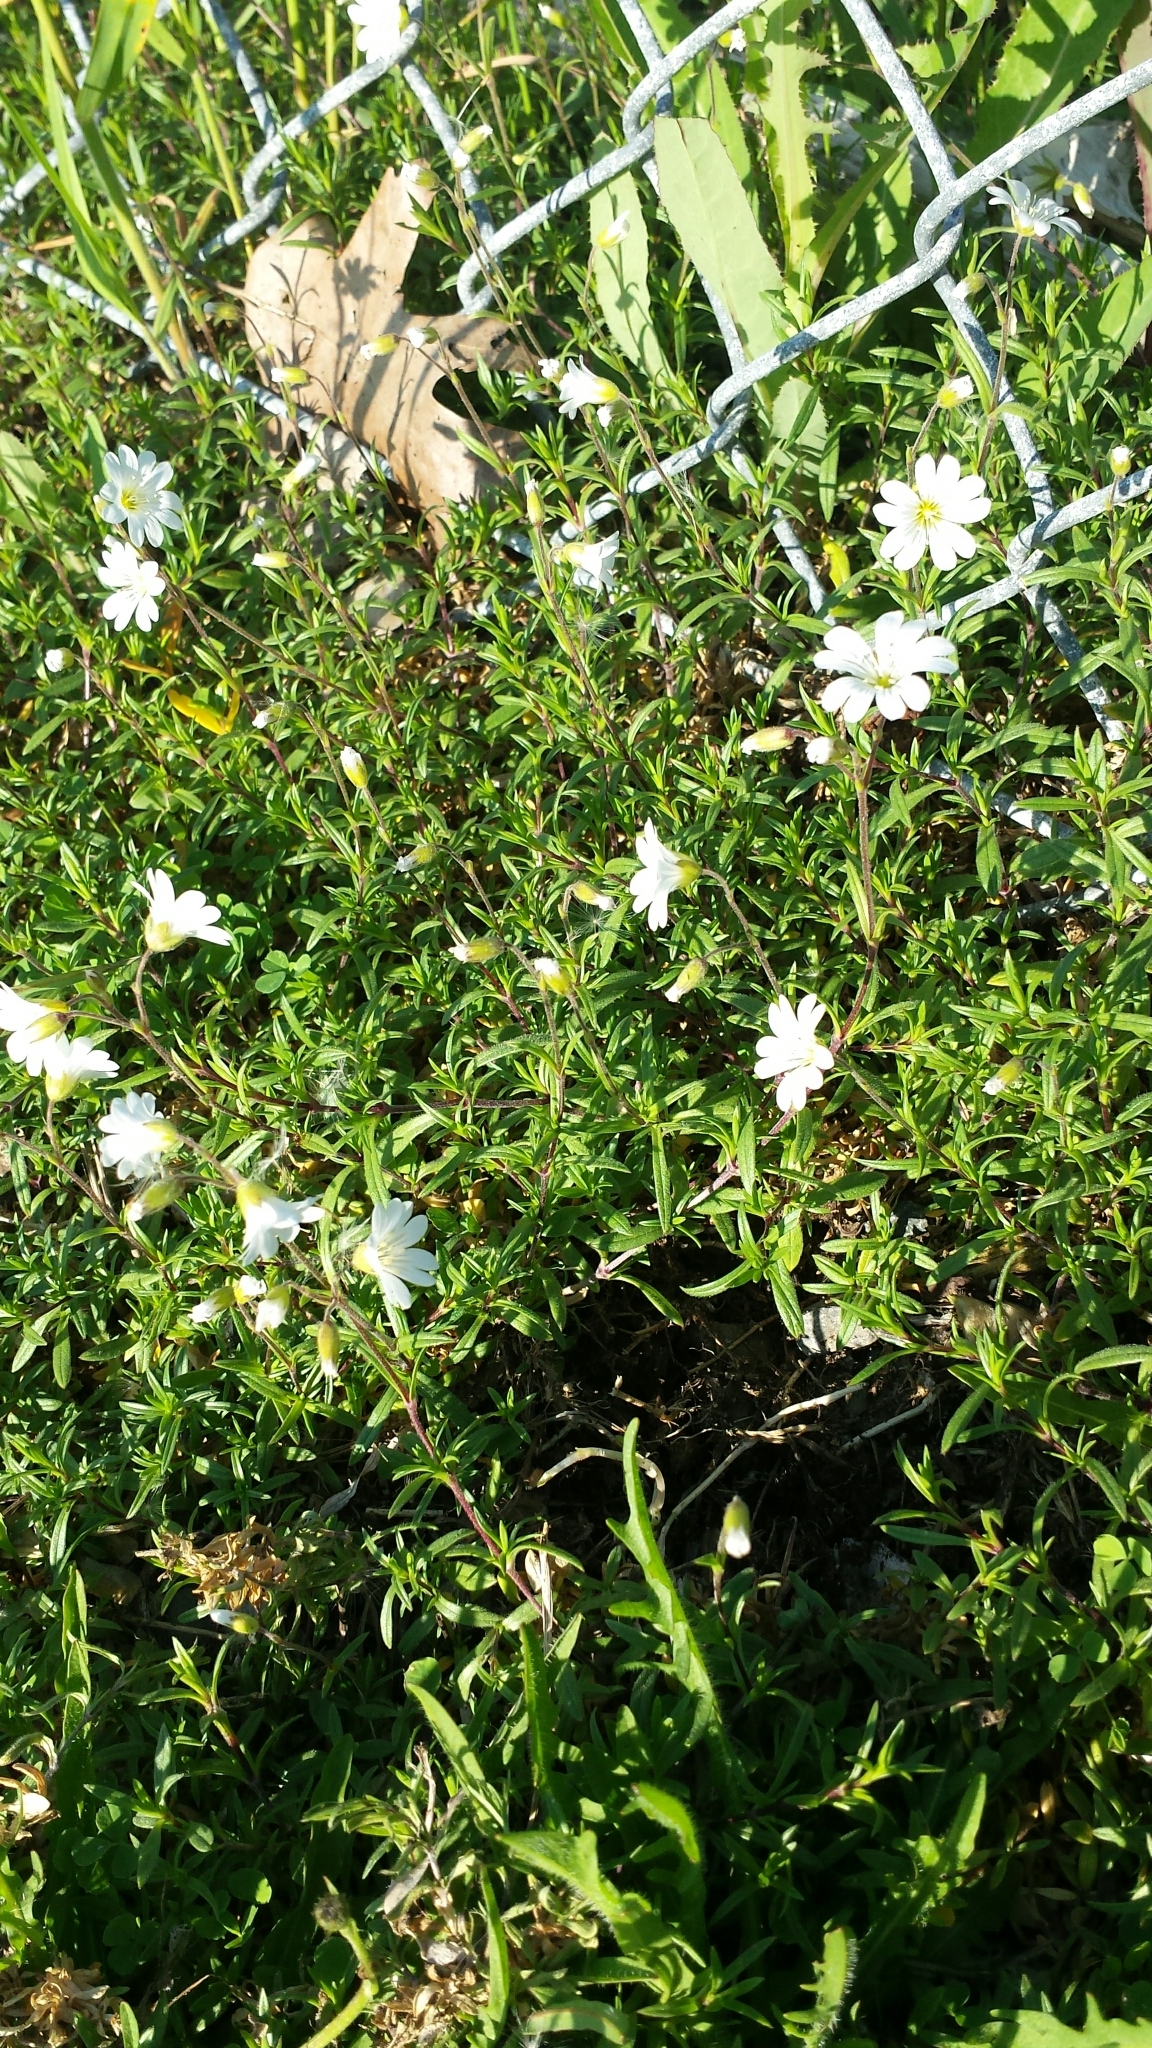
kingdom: Plantae
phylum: Tracheophyta
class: Magnoliopsida
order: Caryophyllales
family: Caryophyllaceae
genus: Cerastium
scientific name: Cerastium arvense
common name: Field mouse-ear
